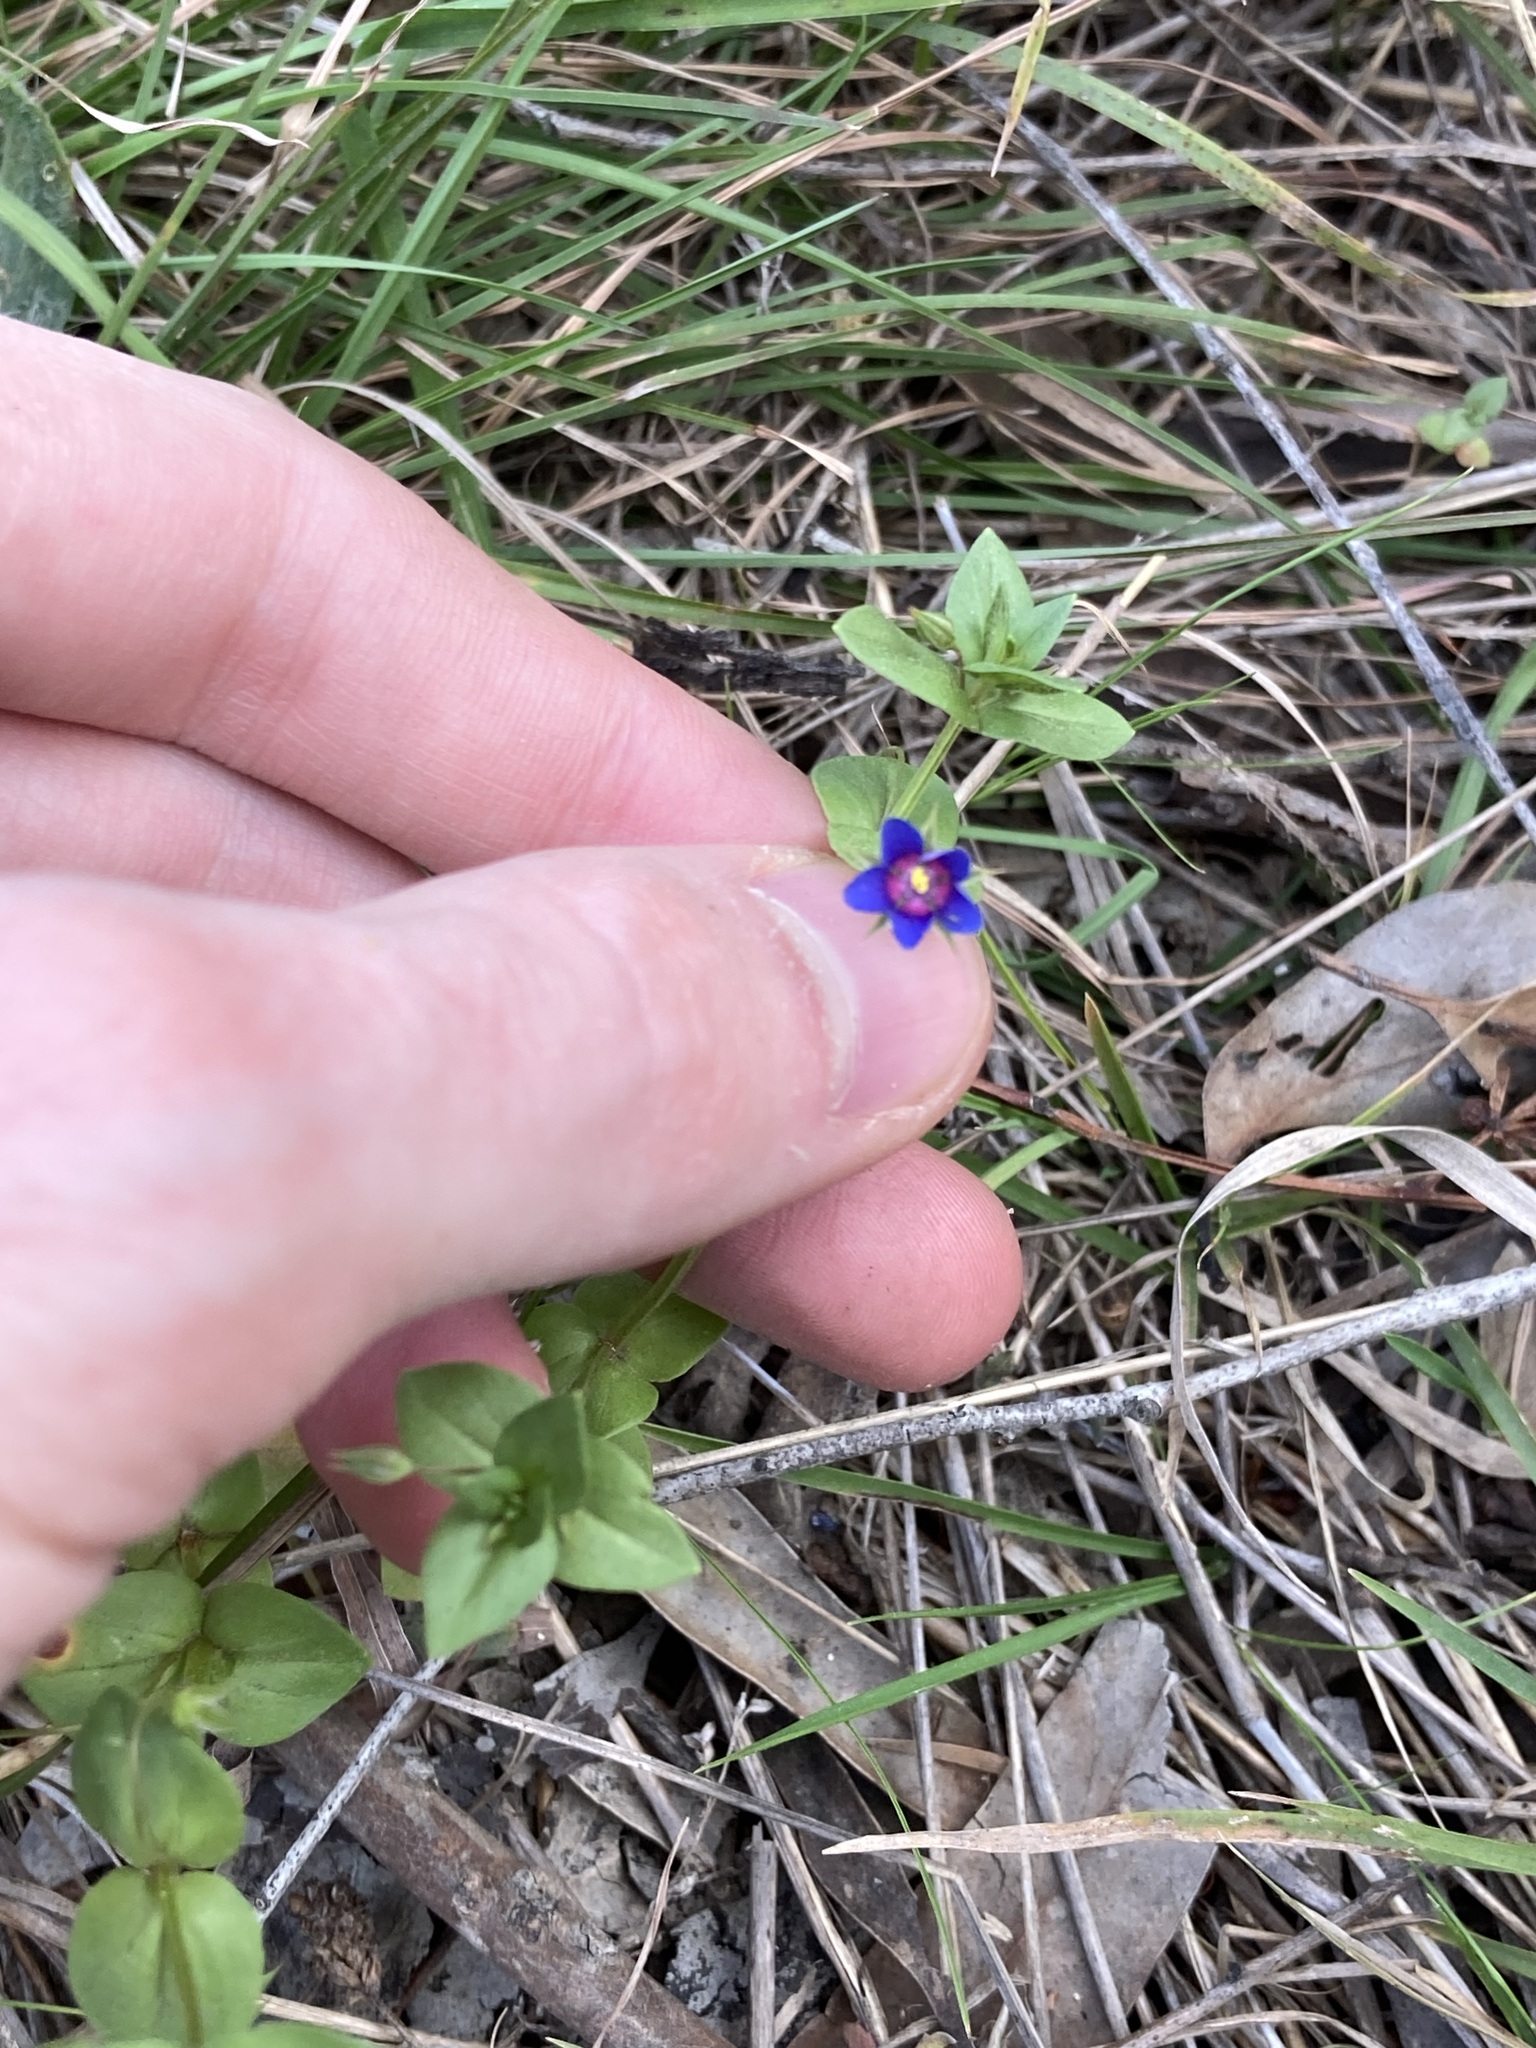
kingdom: Plantae
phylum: Tracheophyta
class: Magnoliopsida
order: Ericales
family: Primulaceae
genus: Lysimachia
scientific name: Lysimachia loeflingii
